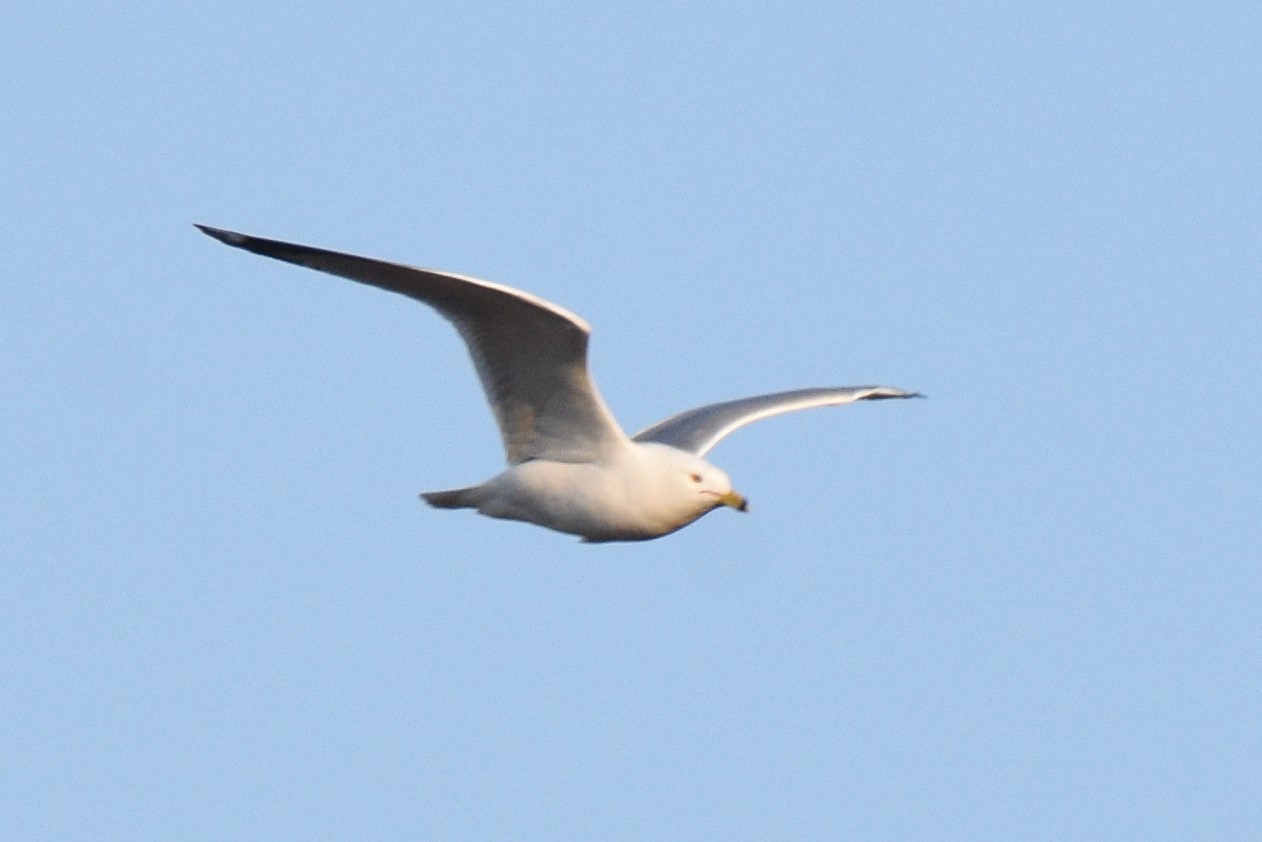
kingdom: Animalia
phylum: Chordata
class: Aves
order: Charadriiformes
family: Laridae
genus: Larus
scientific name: Larus delawarensis
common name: Ring-billed gull
